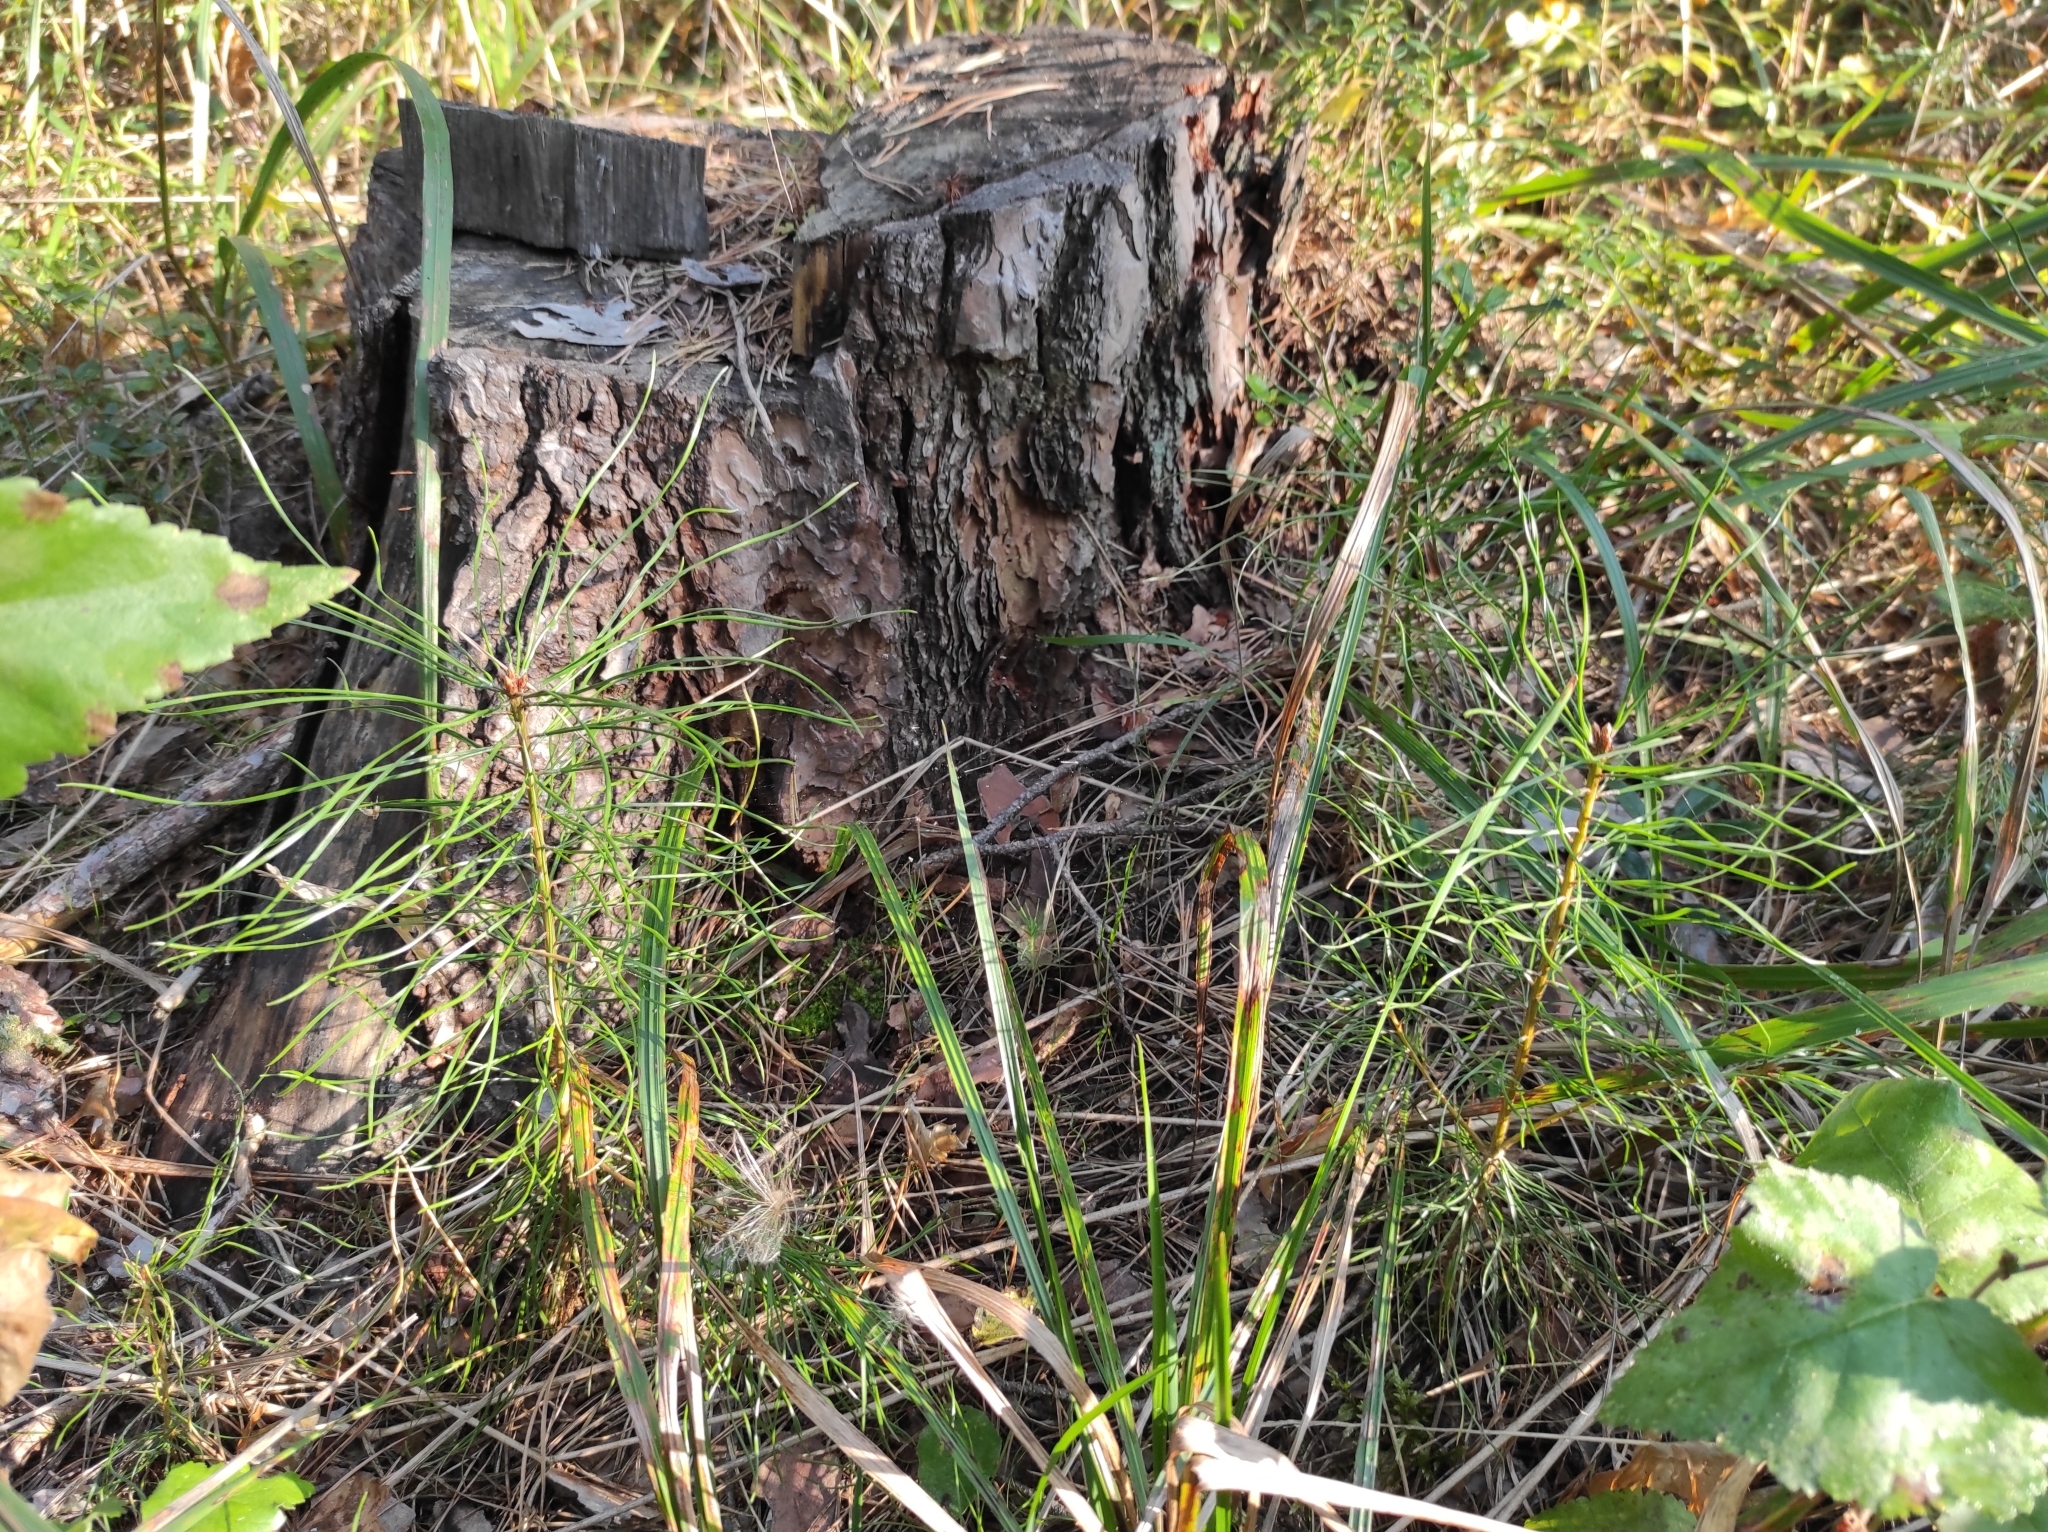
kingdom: Plantae
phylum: Tracheophyta
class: Pinopsida
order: Pinales
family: Pinaceae
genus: Pinus
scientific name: Pinus sylvestris
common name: Scots pine
